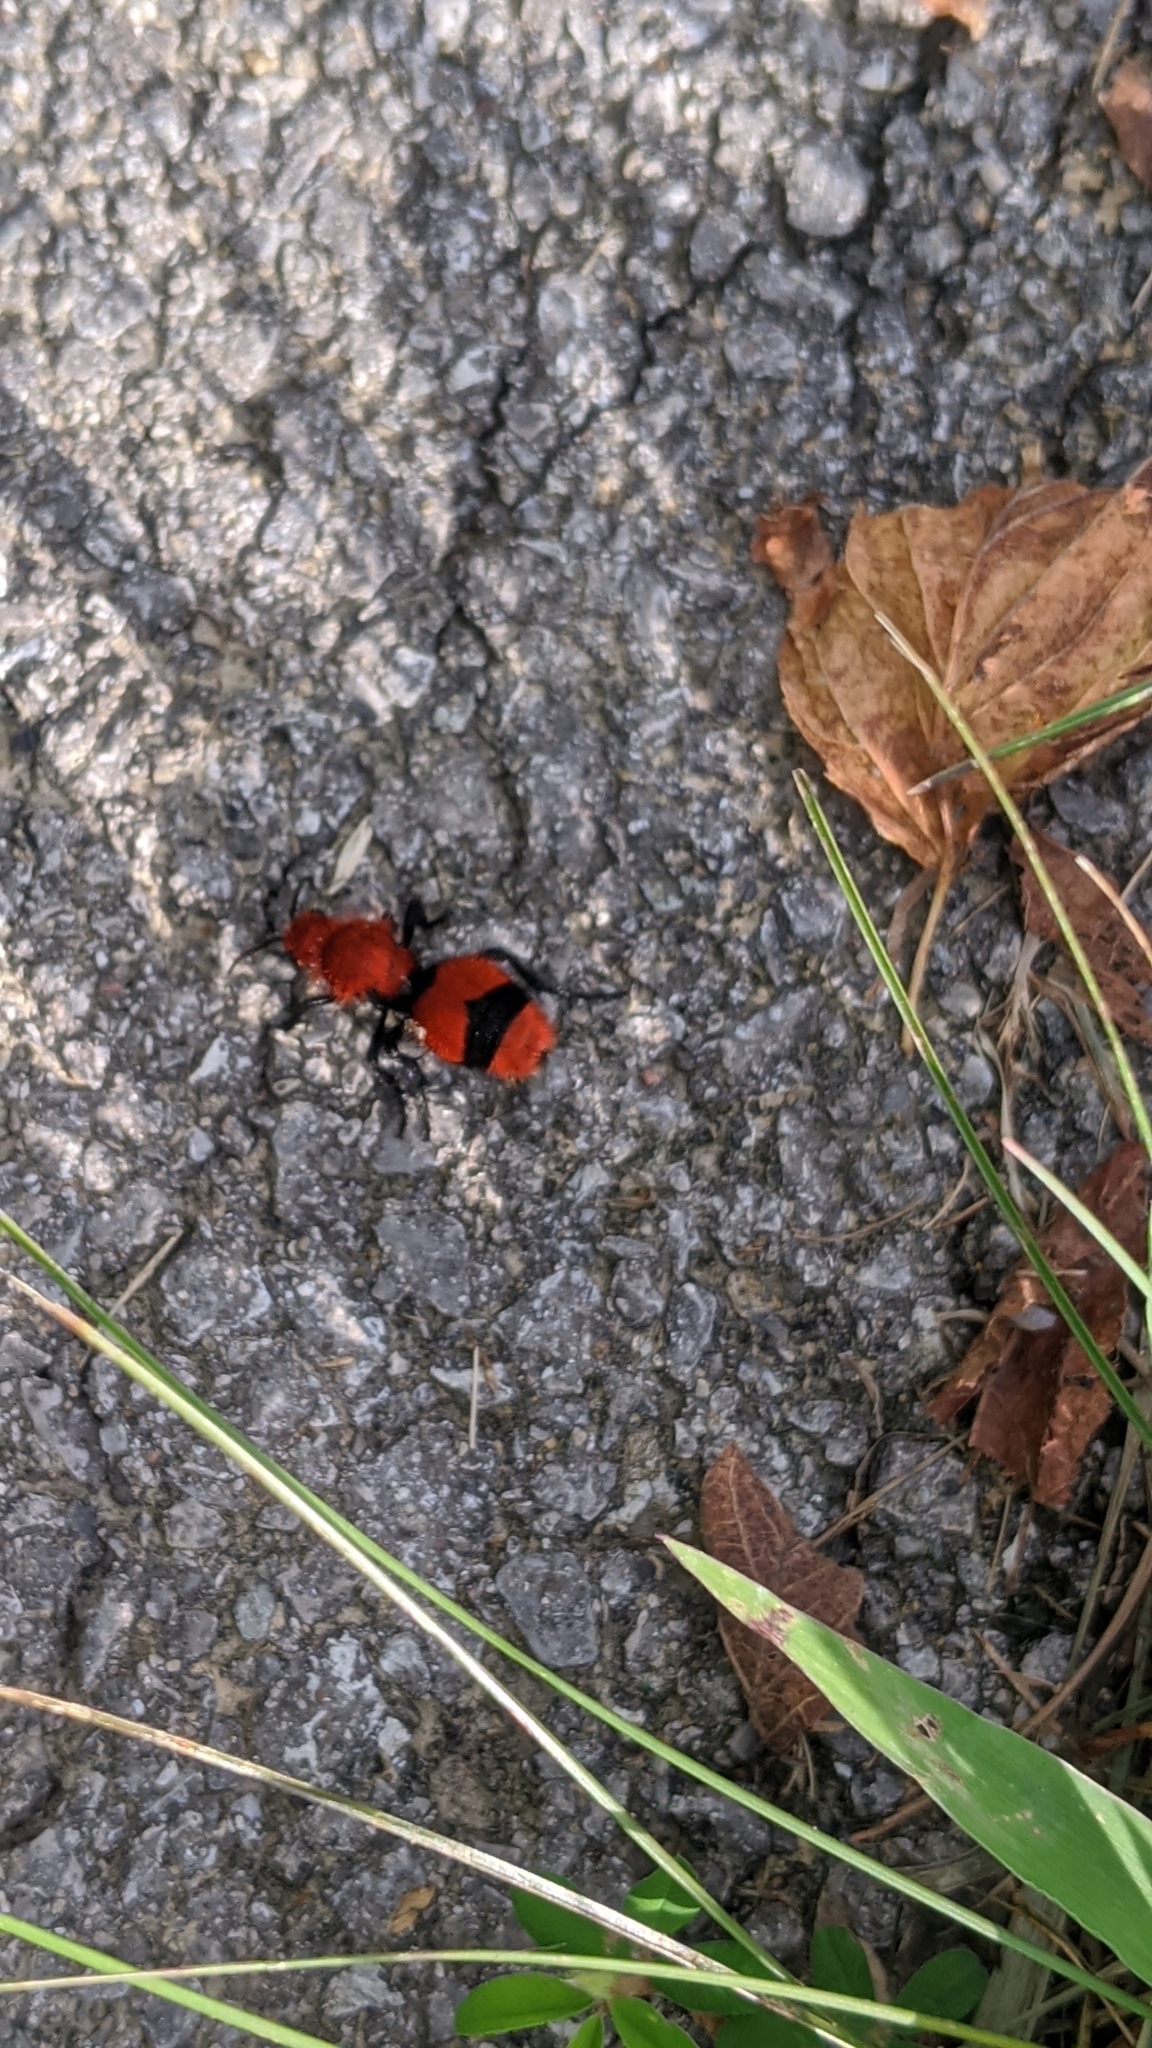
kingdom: Animalia
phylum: Arthropoda
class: Insecta
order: Hymenoptera
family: Mutillidae
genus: Dasymutilla
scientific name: Dasymutilla occidentalis
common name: Common eastern velvet ant
